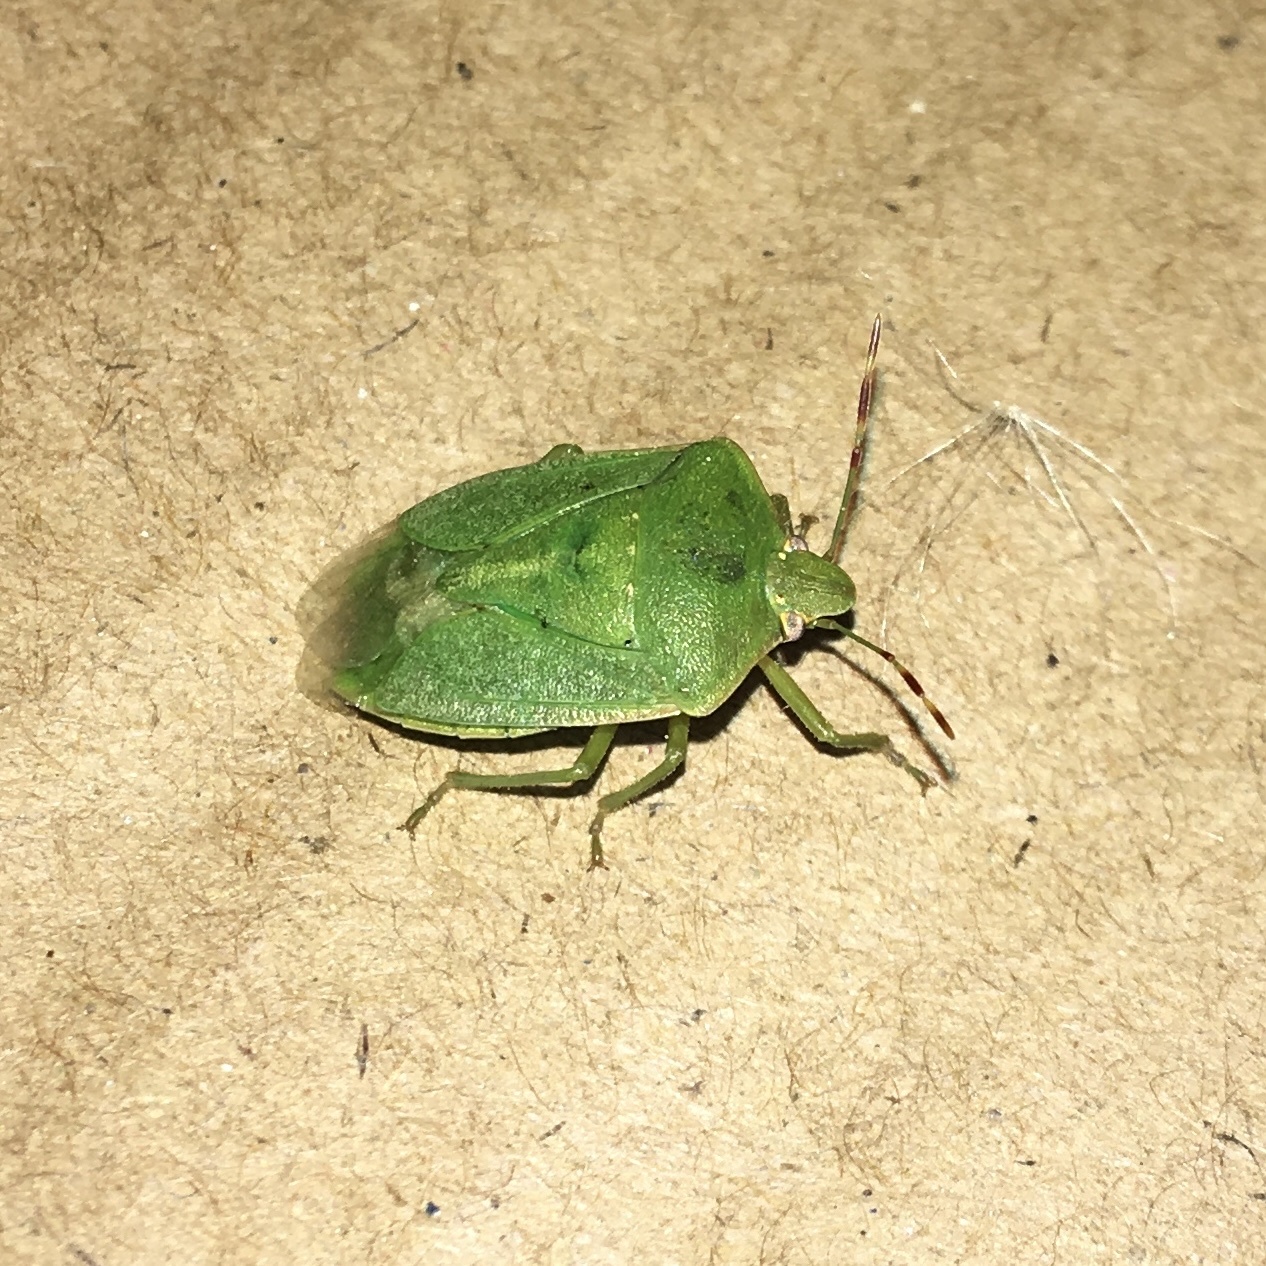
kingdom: Animalia
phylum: Arthropoda
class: Insecta
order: Hemiptera
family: Pentatomidae
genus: Nezara
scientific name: Nezara viridula
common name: Southern green stink bug
